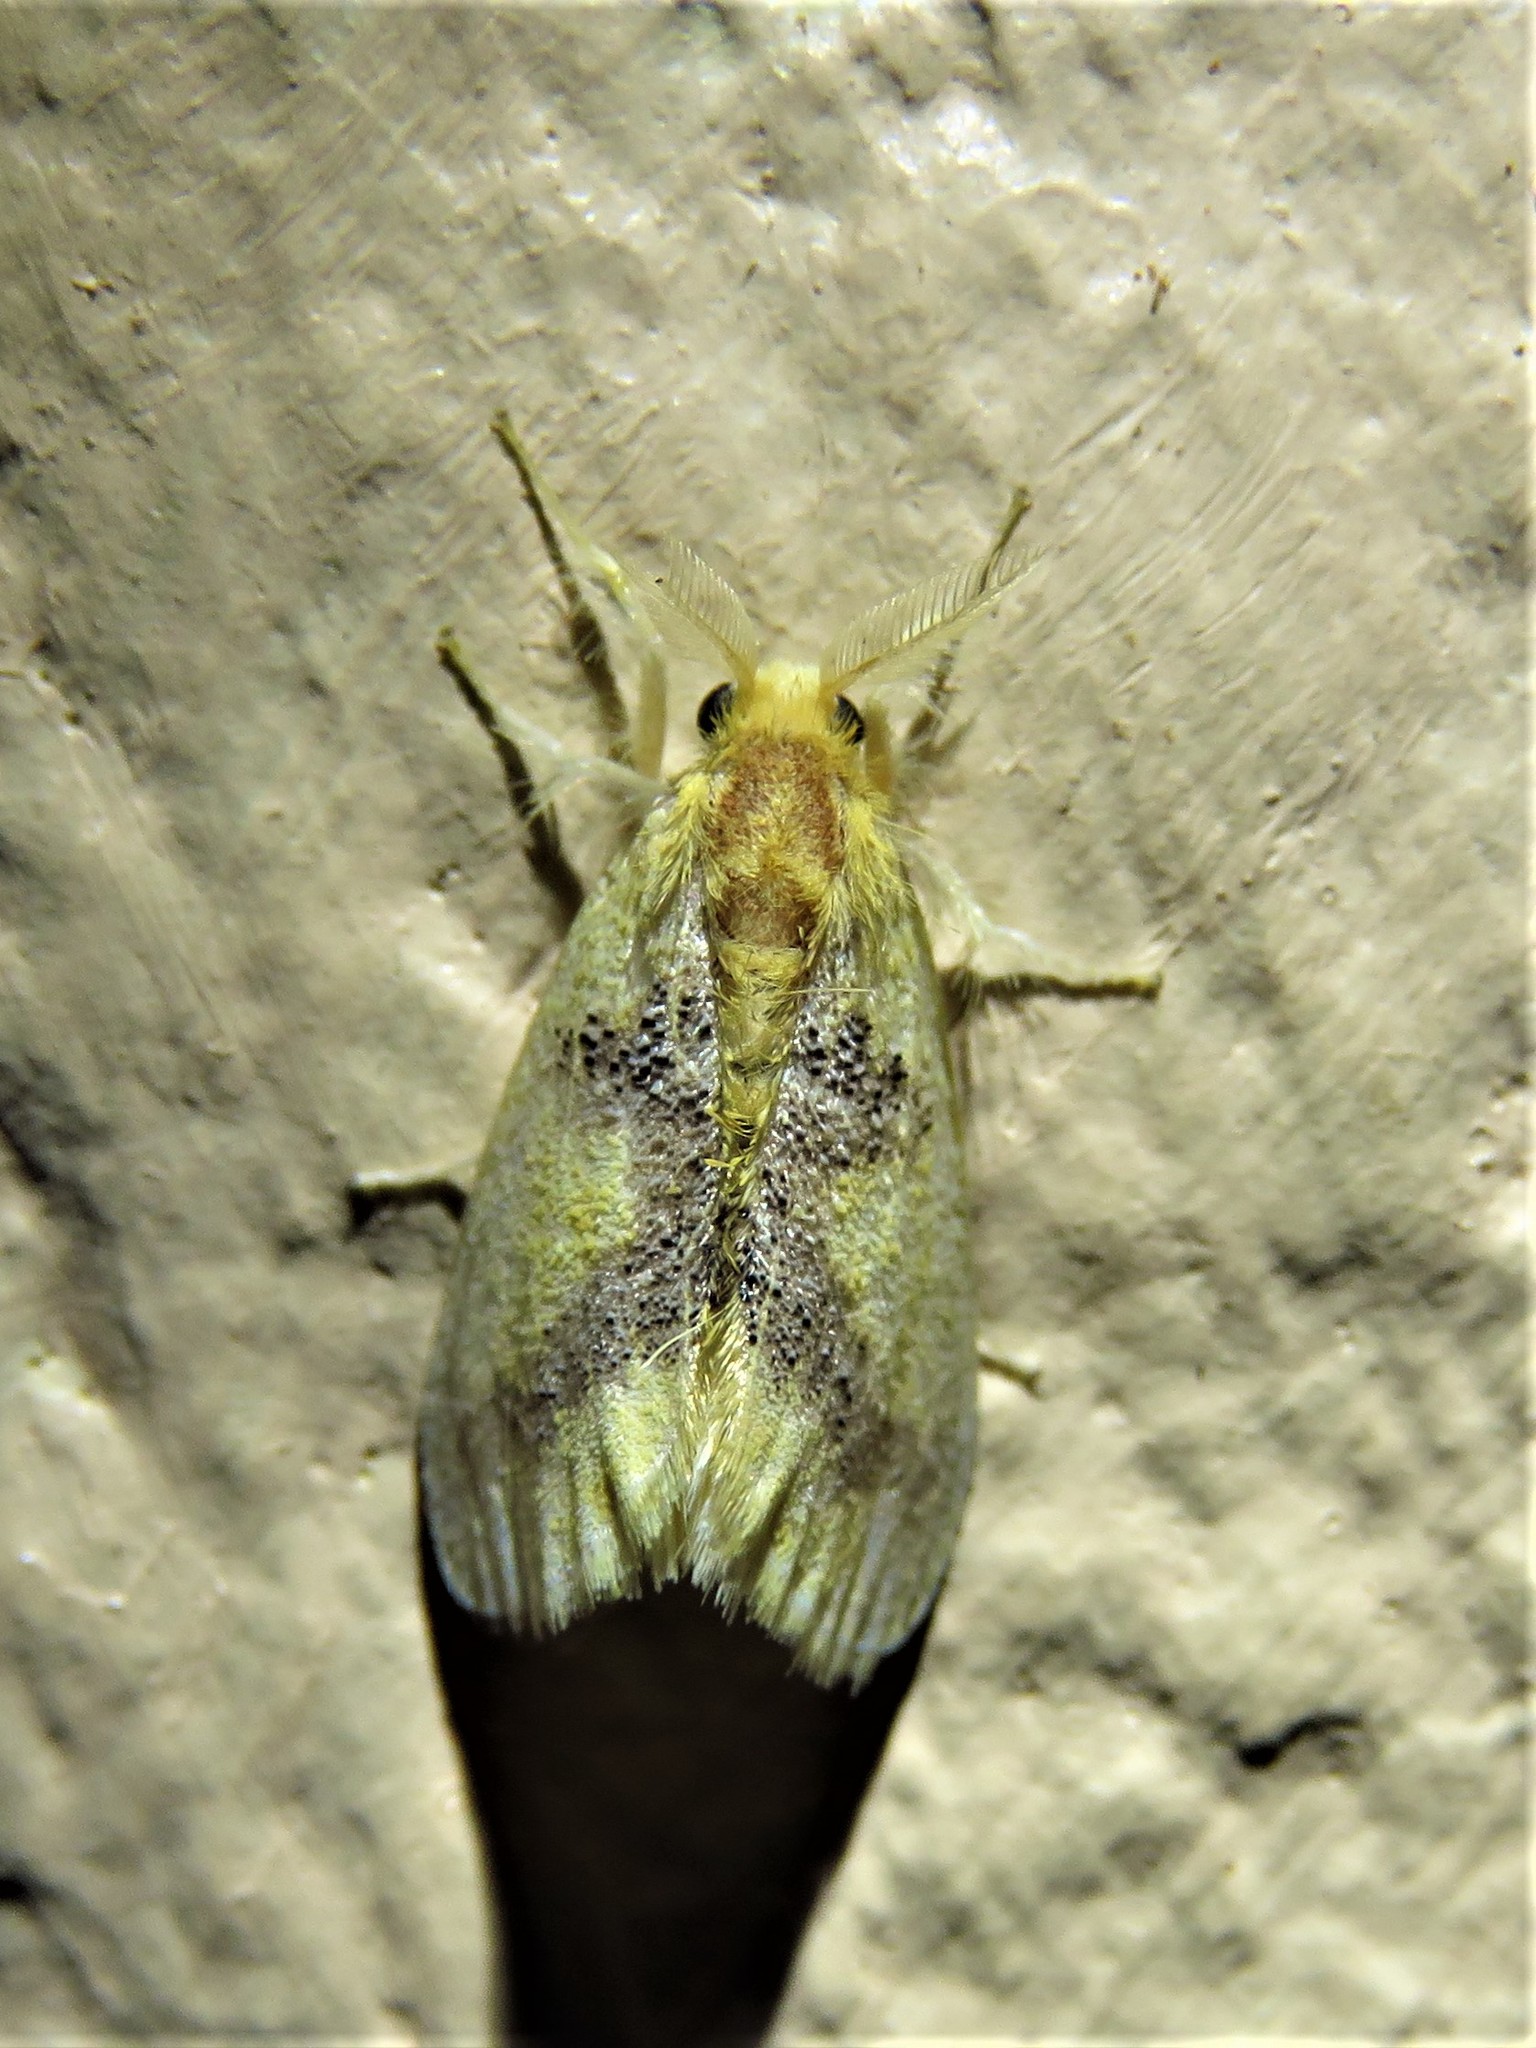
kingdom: Animalia
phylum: Arthropoda
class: Insecta
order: Lepidoptera
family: Erebidae
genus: Euproctis
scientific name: Euproctis aethiopica
